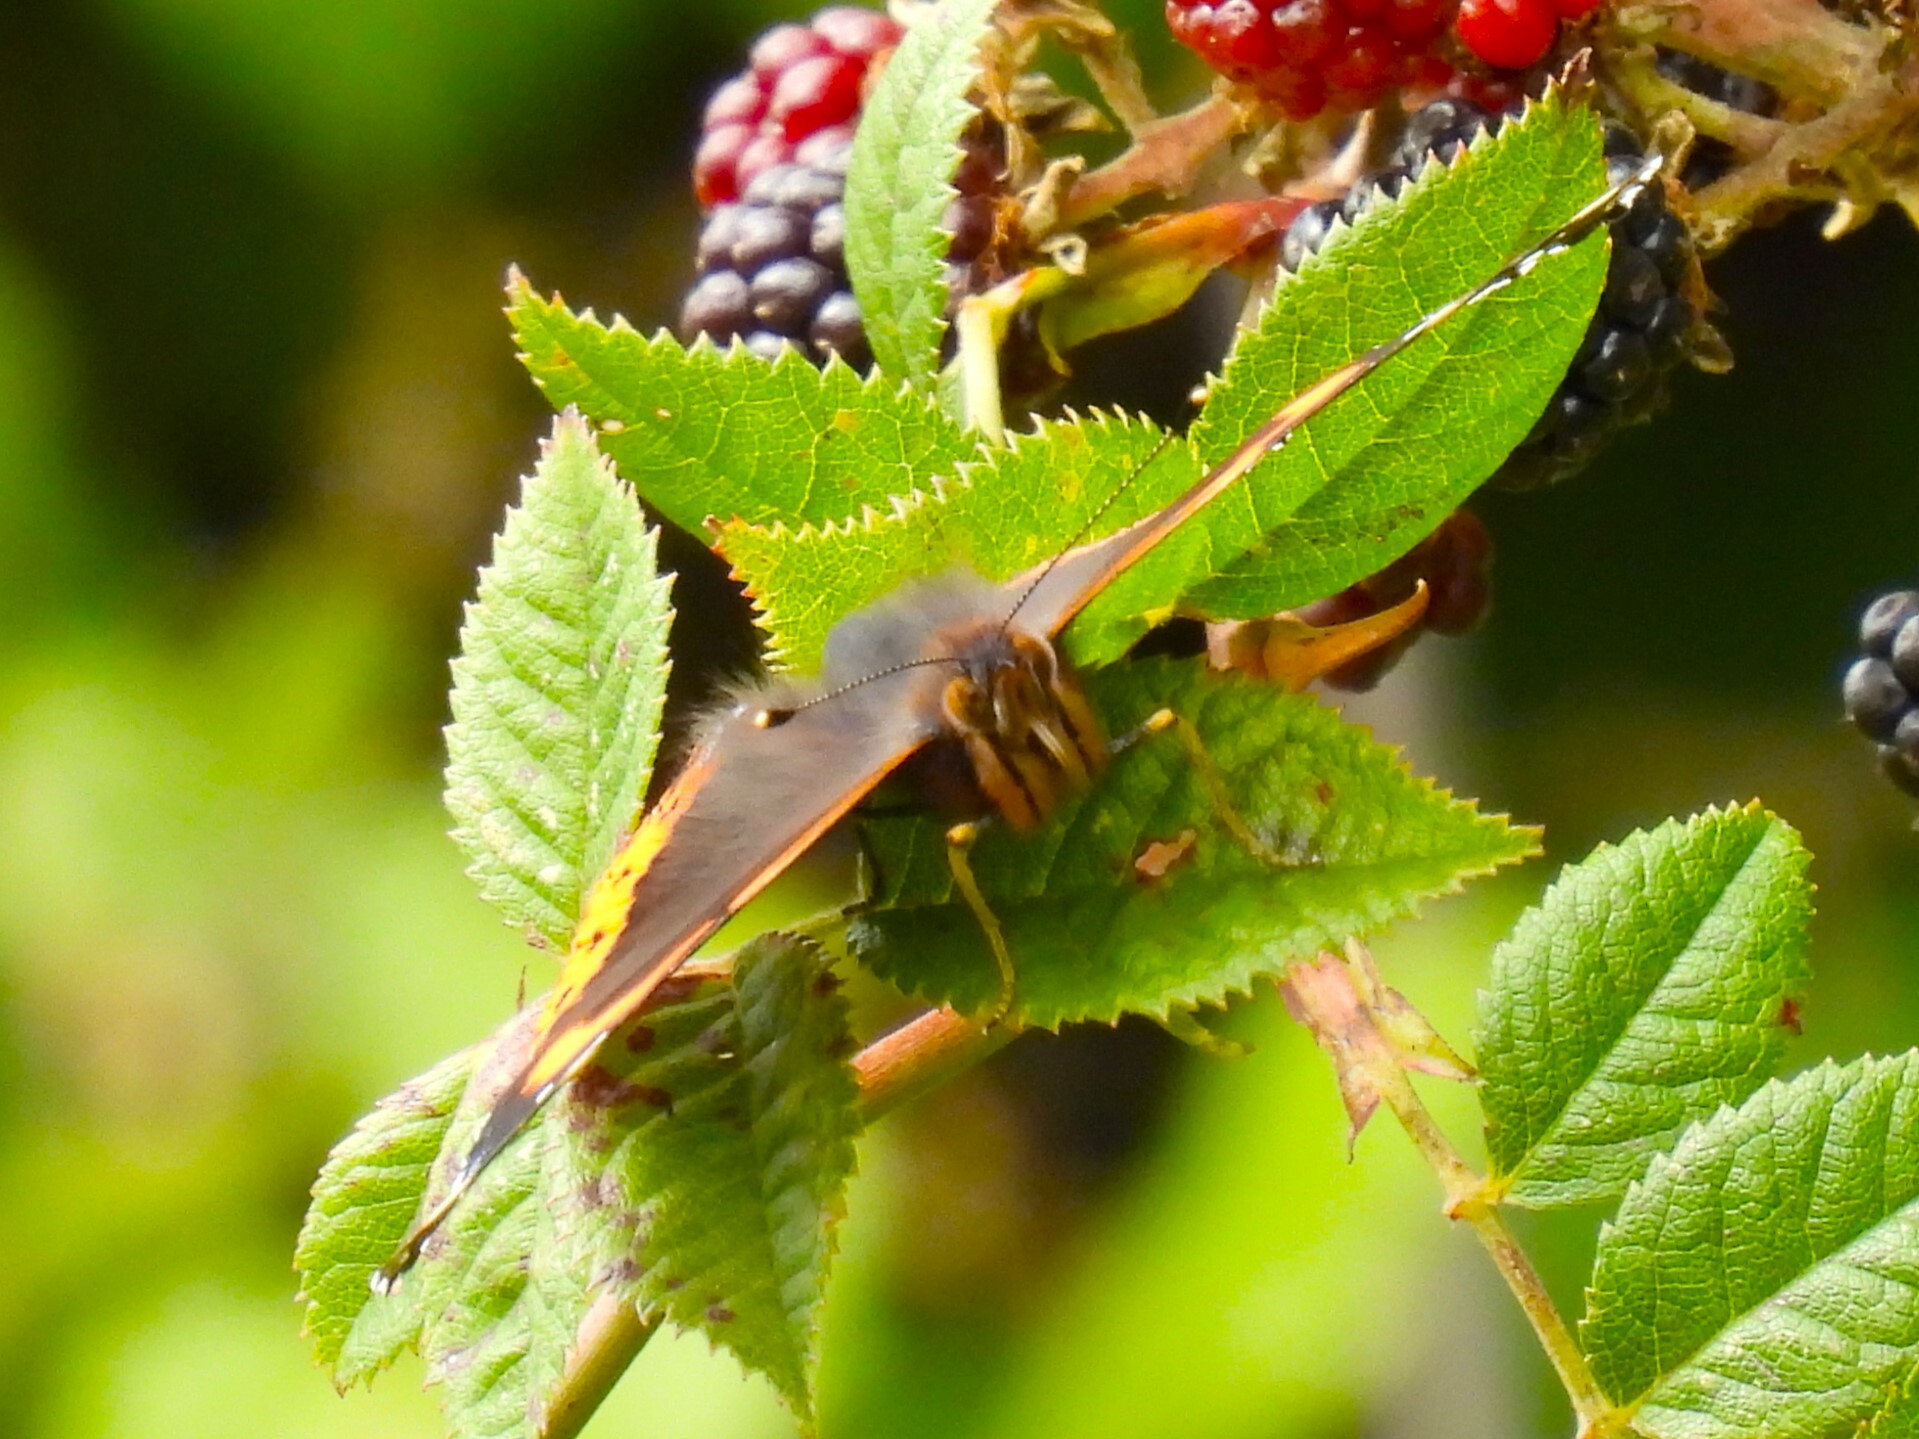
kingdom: Animalia
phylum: Arthropoda
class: Insecta
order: Lepidoptera
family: Nymphalidae
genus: Vanessa
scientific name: Vanessa atalanta
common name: Red admiral
